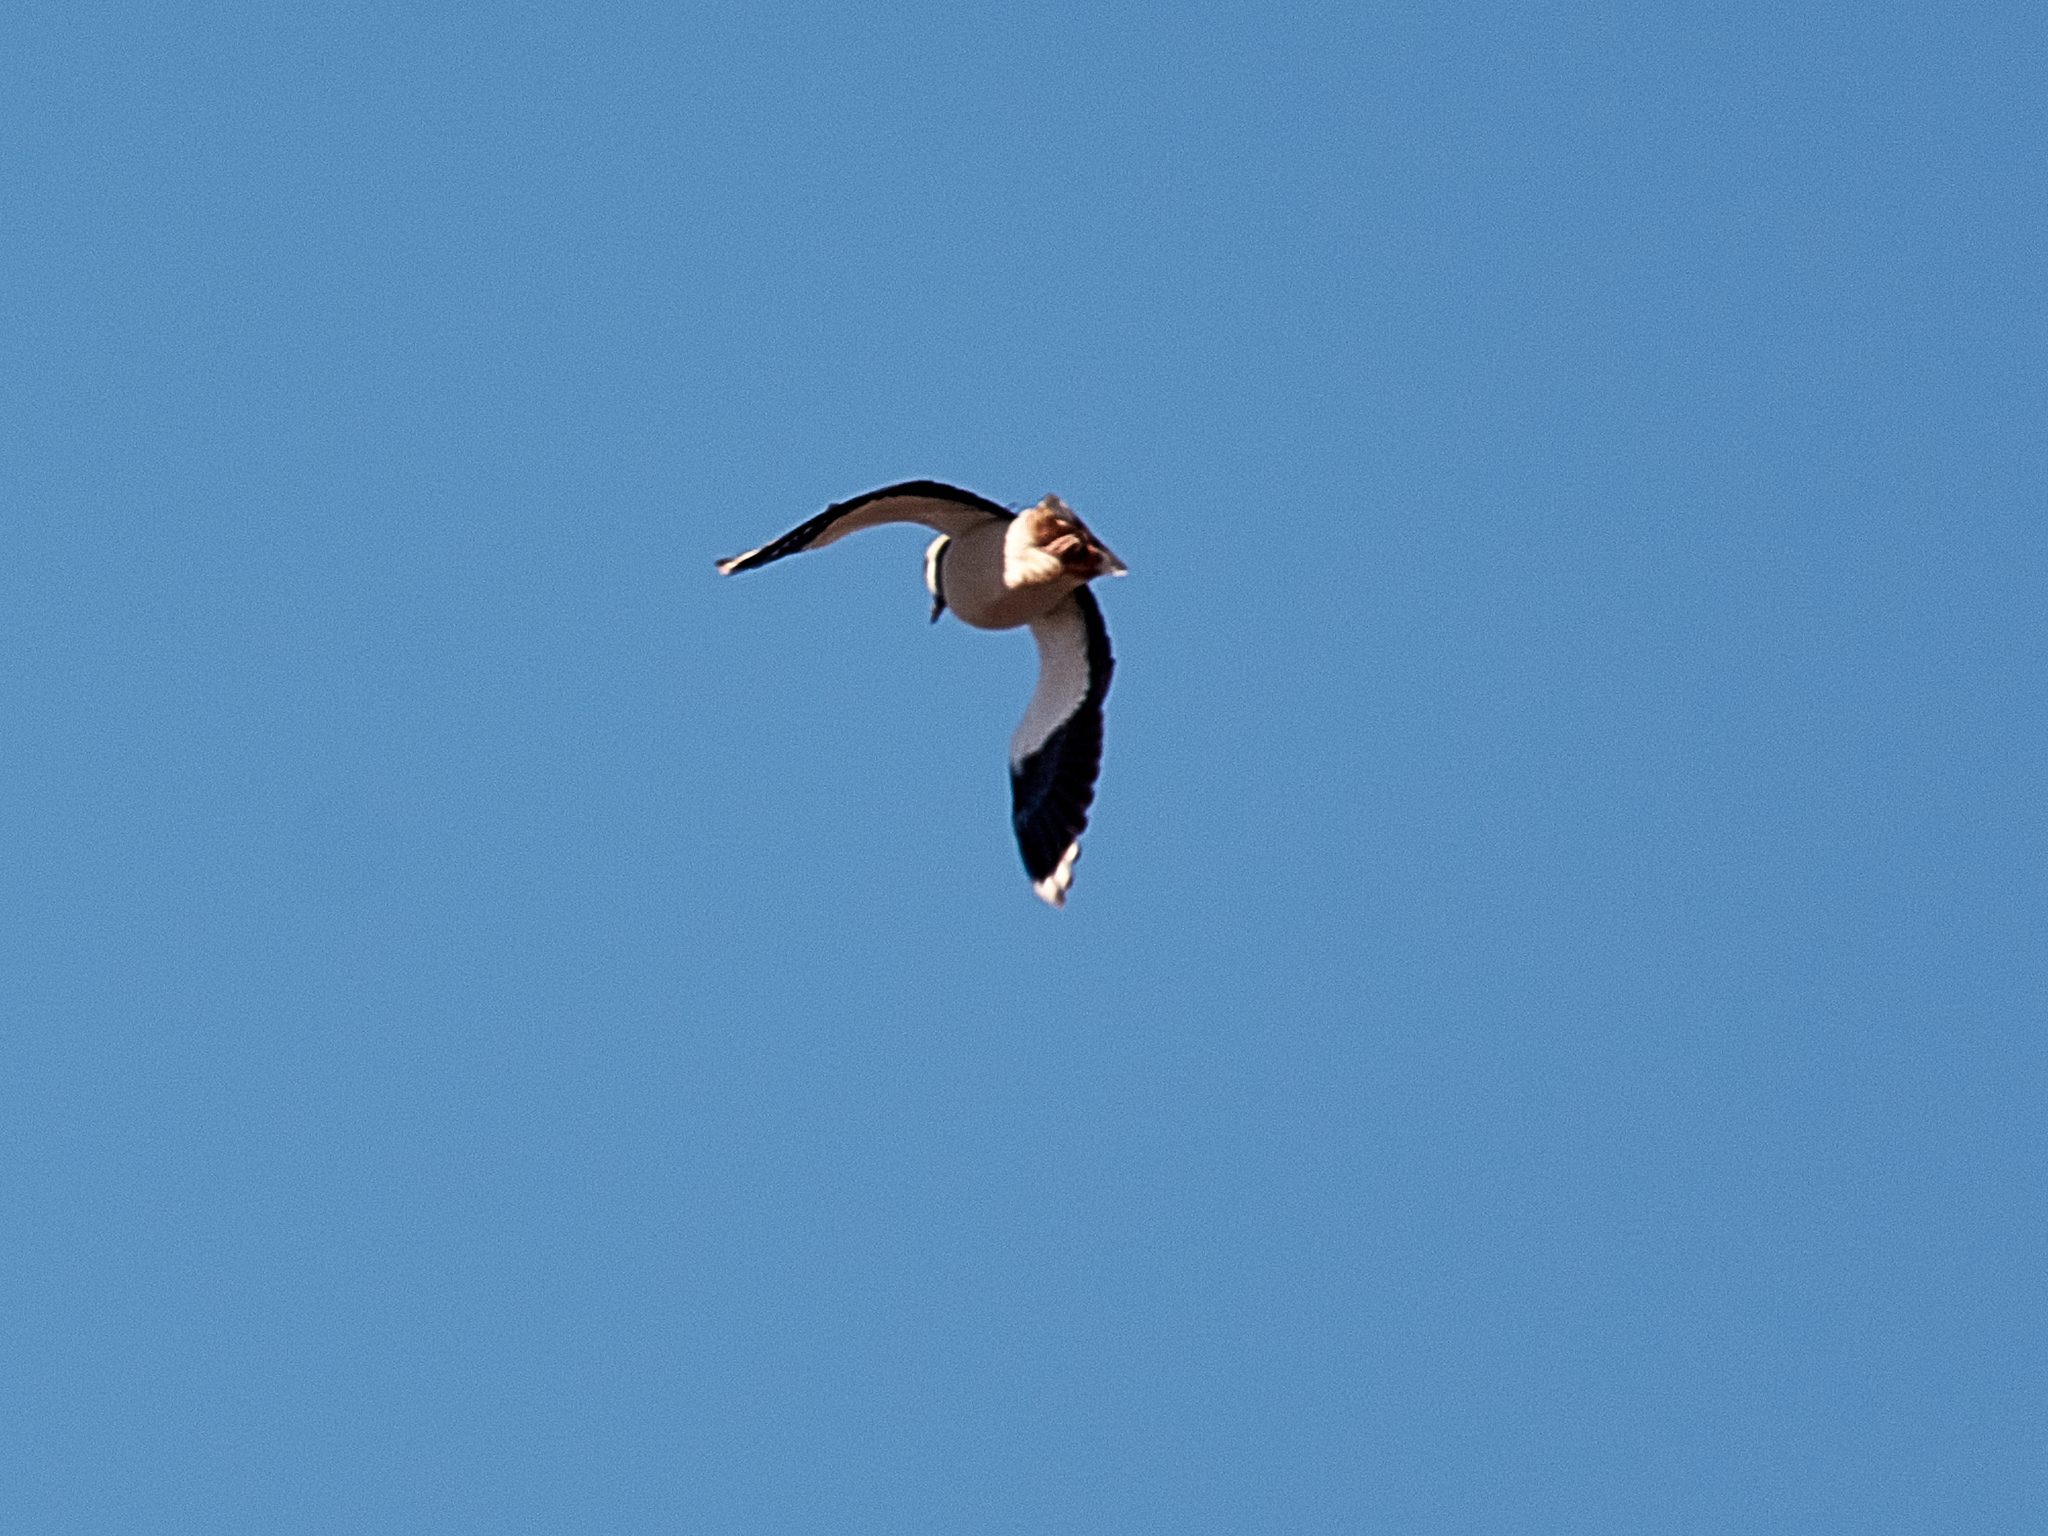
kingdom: Animalia
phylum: Chordata
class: Aves
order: Charadriiformes
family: Charadriidae
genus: Vanellus
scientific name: Vanellus vanellus
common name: Northern lapwing
